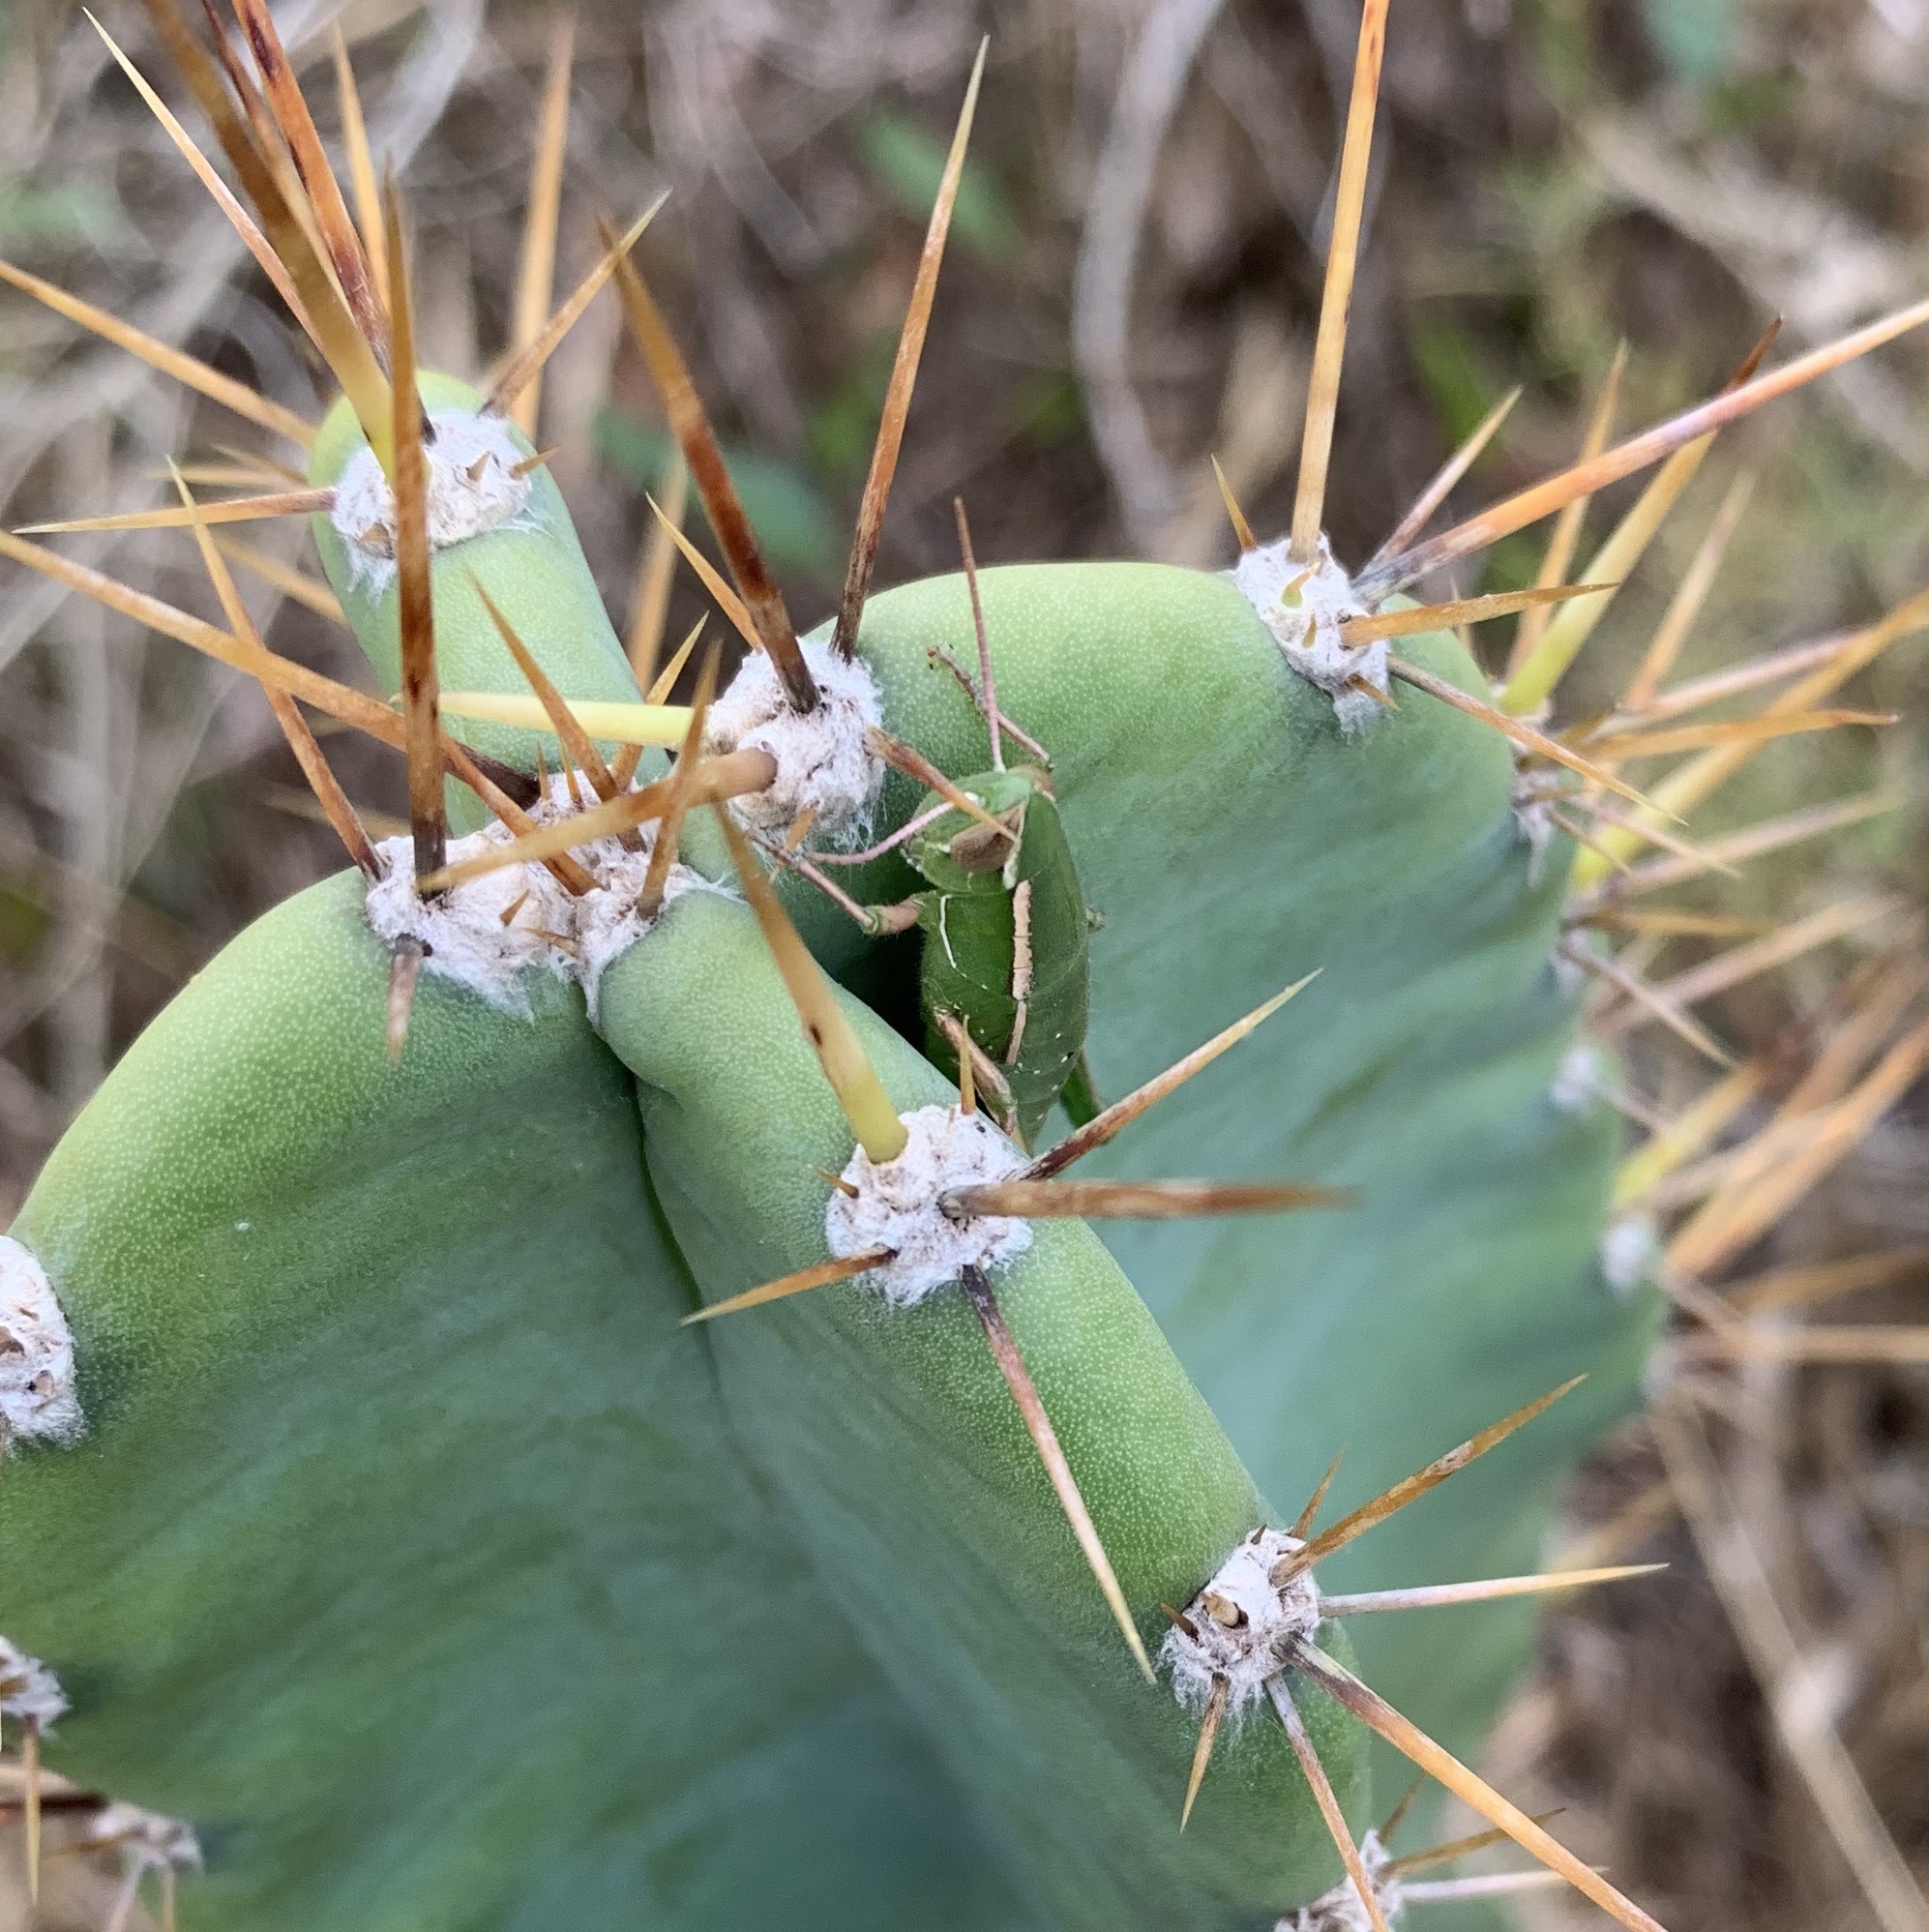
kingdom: Animalia
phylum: Arthropoda
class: Insecta
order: Orthoptera
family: Acrididae
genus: Aptenopedes
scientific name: Aptenopedes sphenarioides
